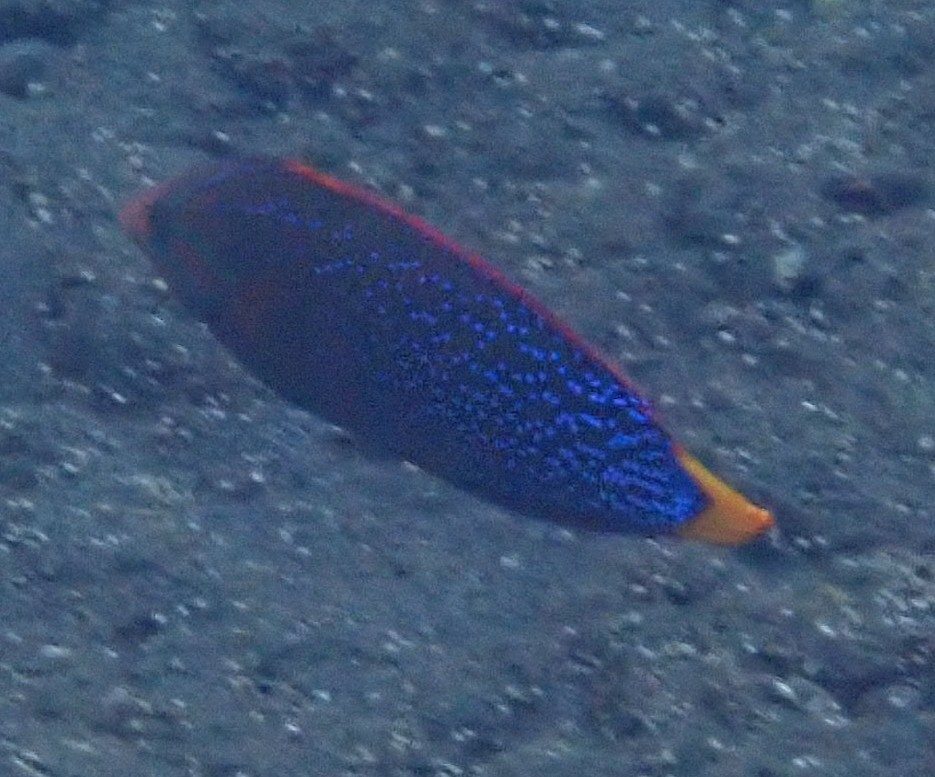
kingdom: Animalia
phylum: Chordata
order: Perciformes
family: Labridae
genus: Coris
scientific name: Coris gaimard
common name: Yellowtail coris
